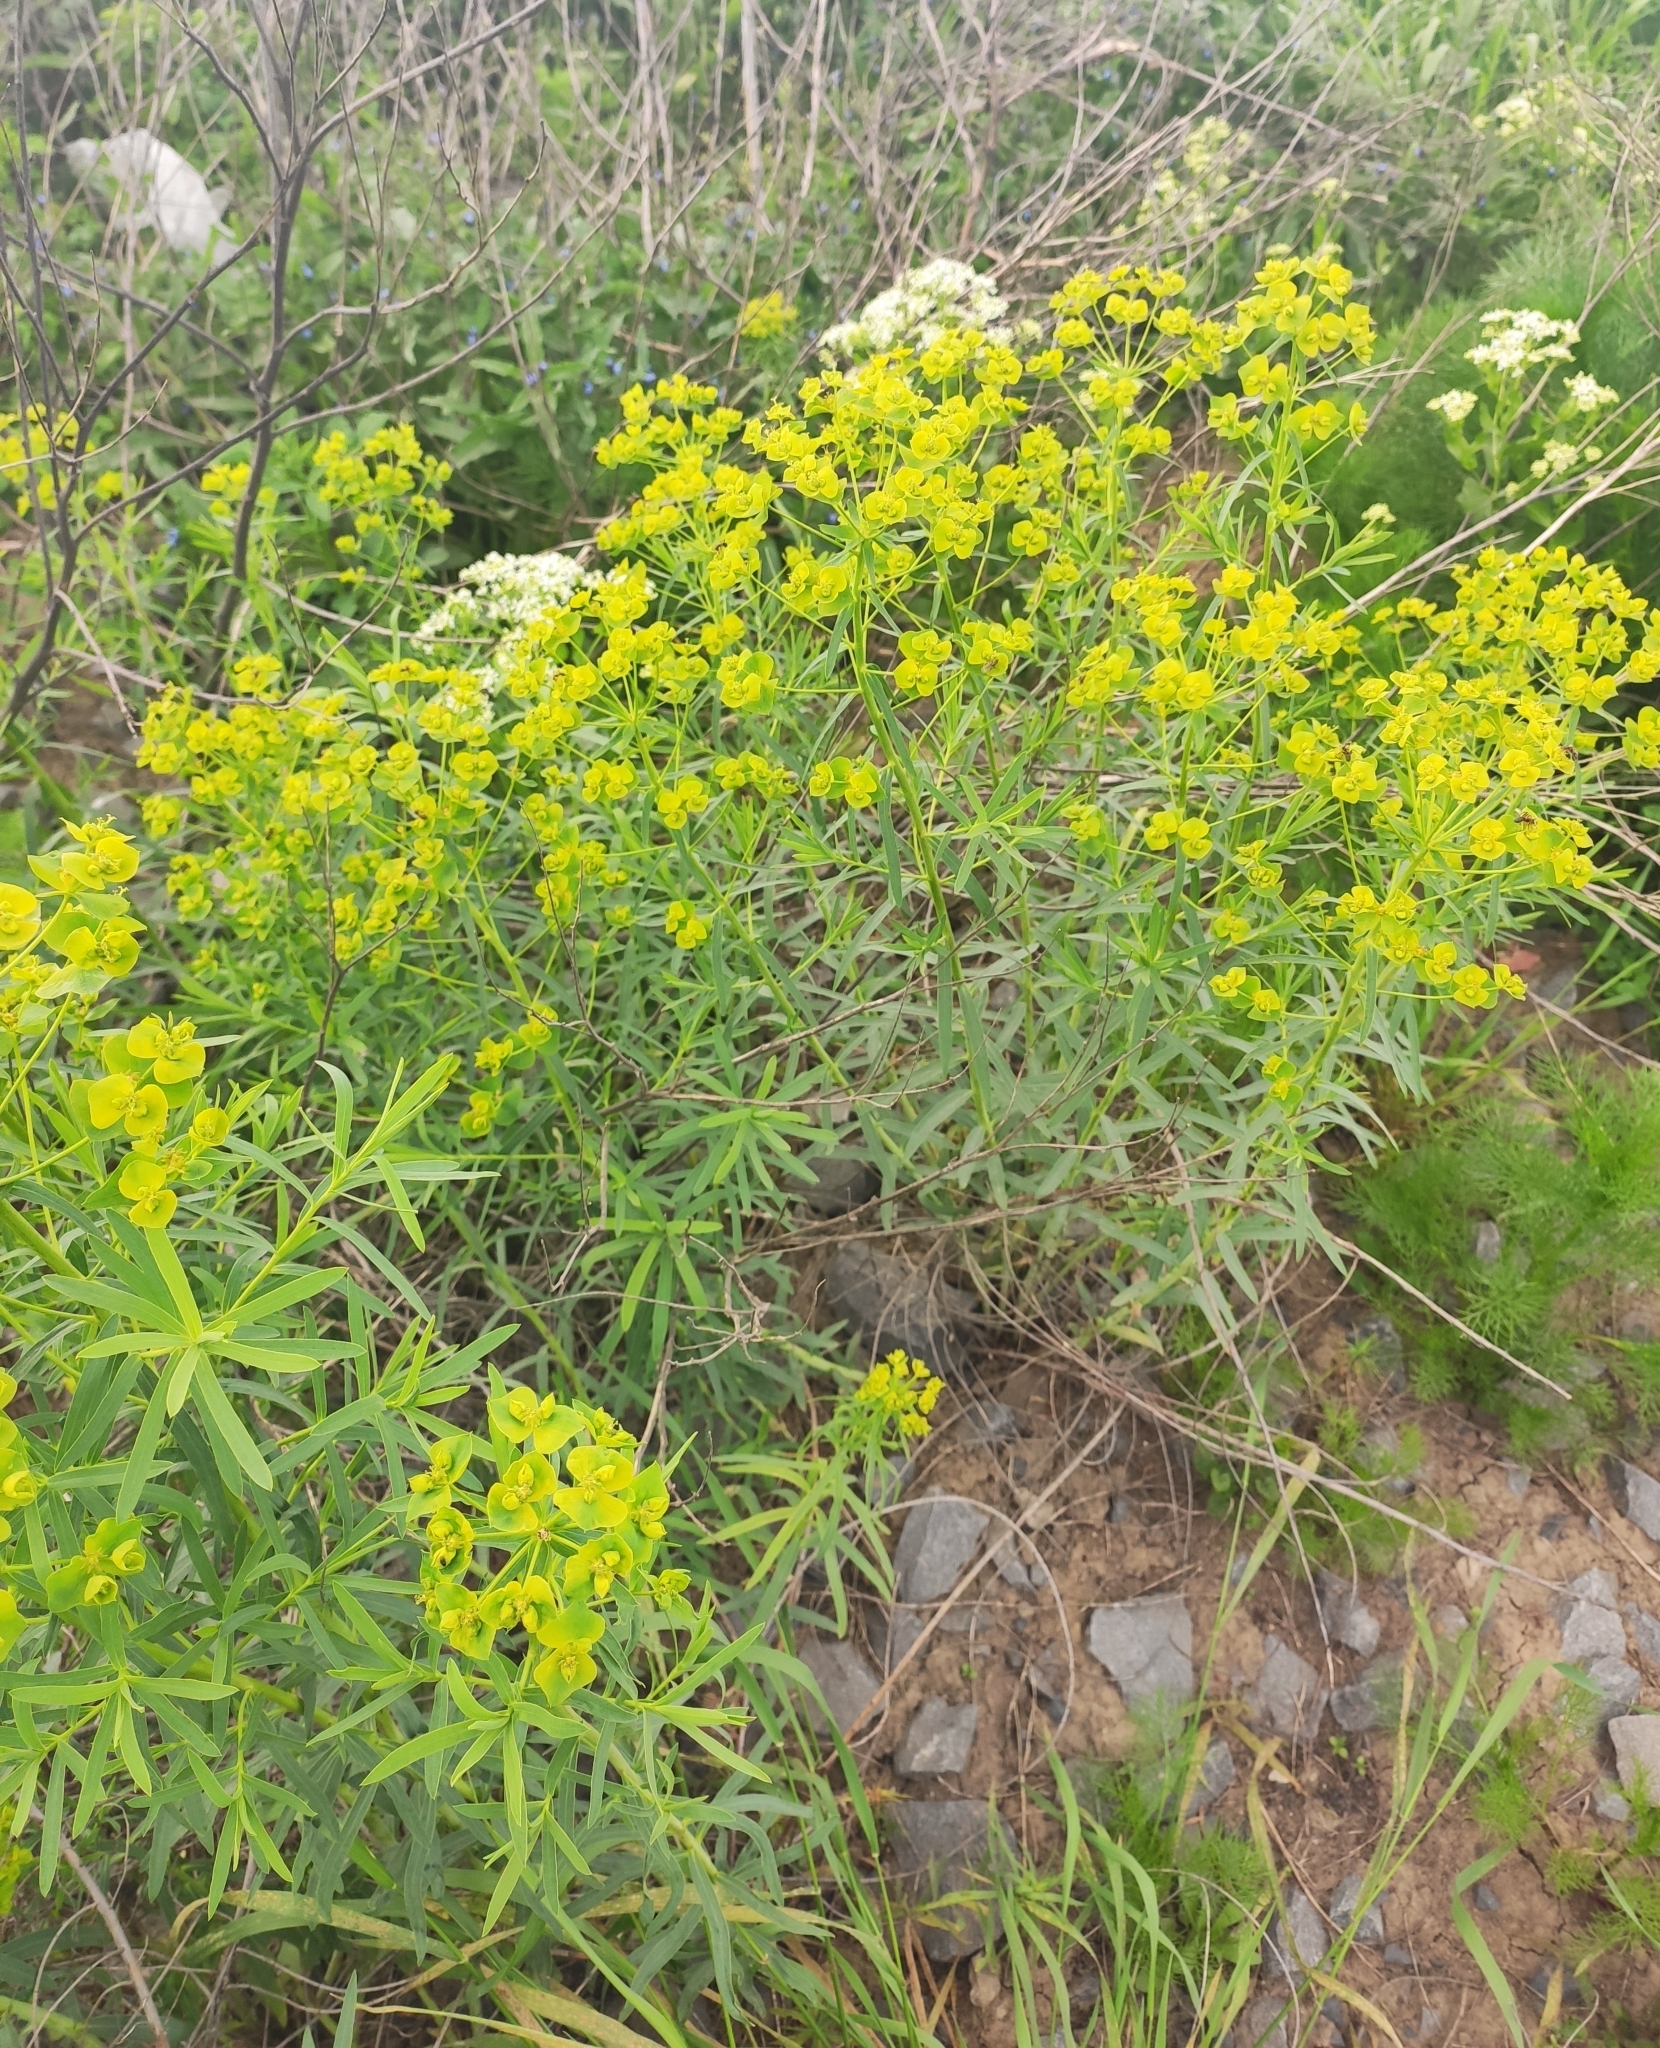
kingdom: Plantae
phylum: Tracheophyta
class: Magnoliopsida
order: Malpighiales
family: Euphorbiaceae
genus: Euphorbia
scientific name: Euphorbia virgata
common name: Leafy spurge
